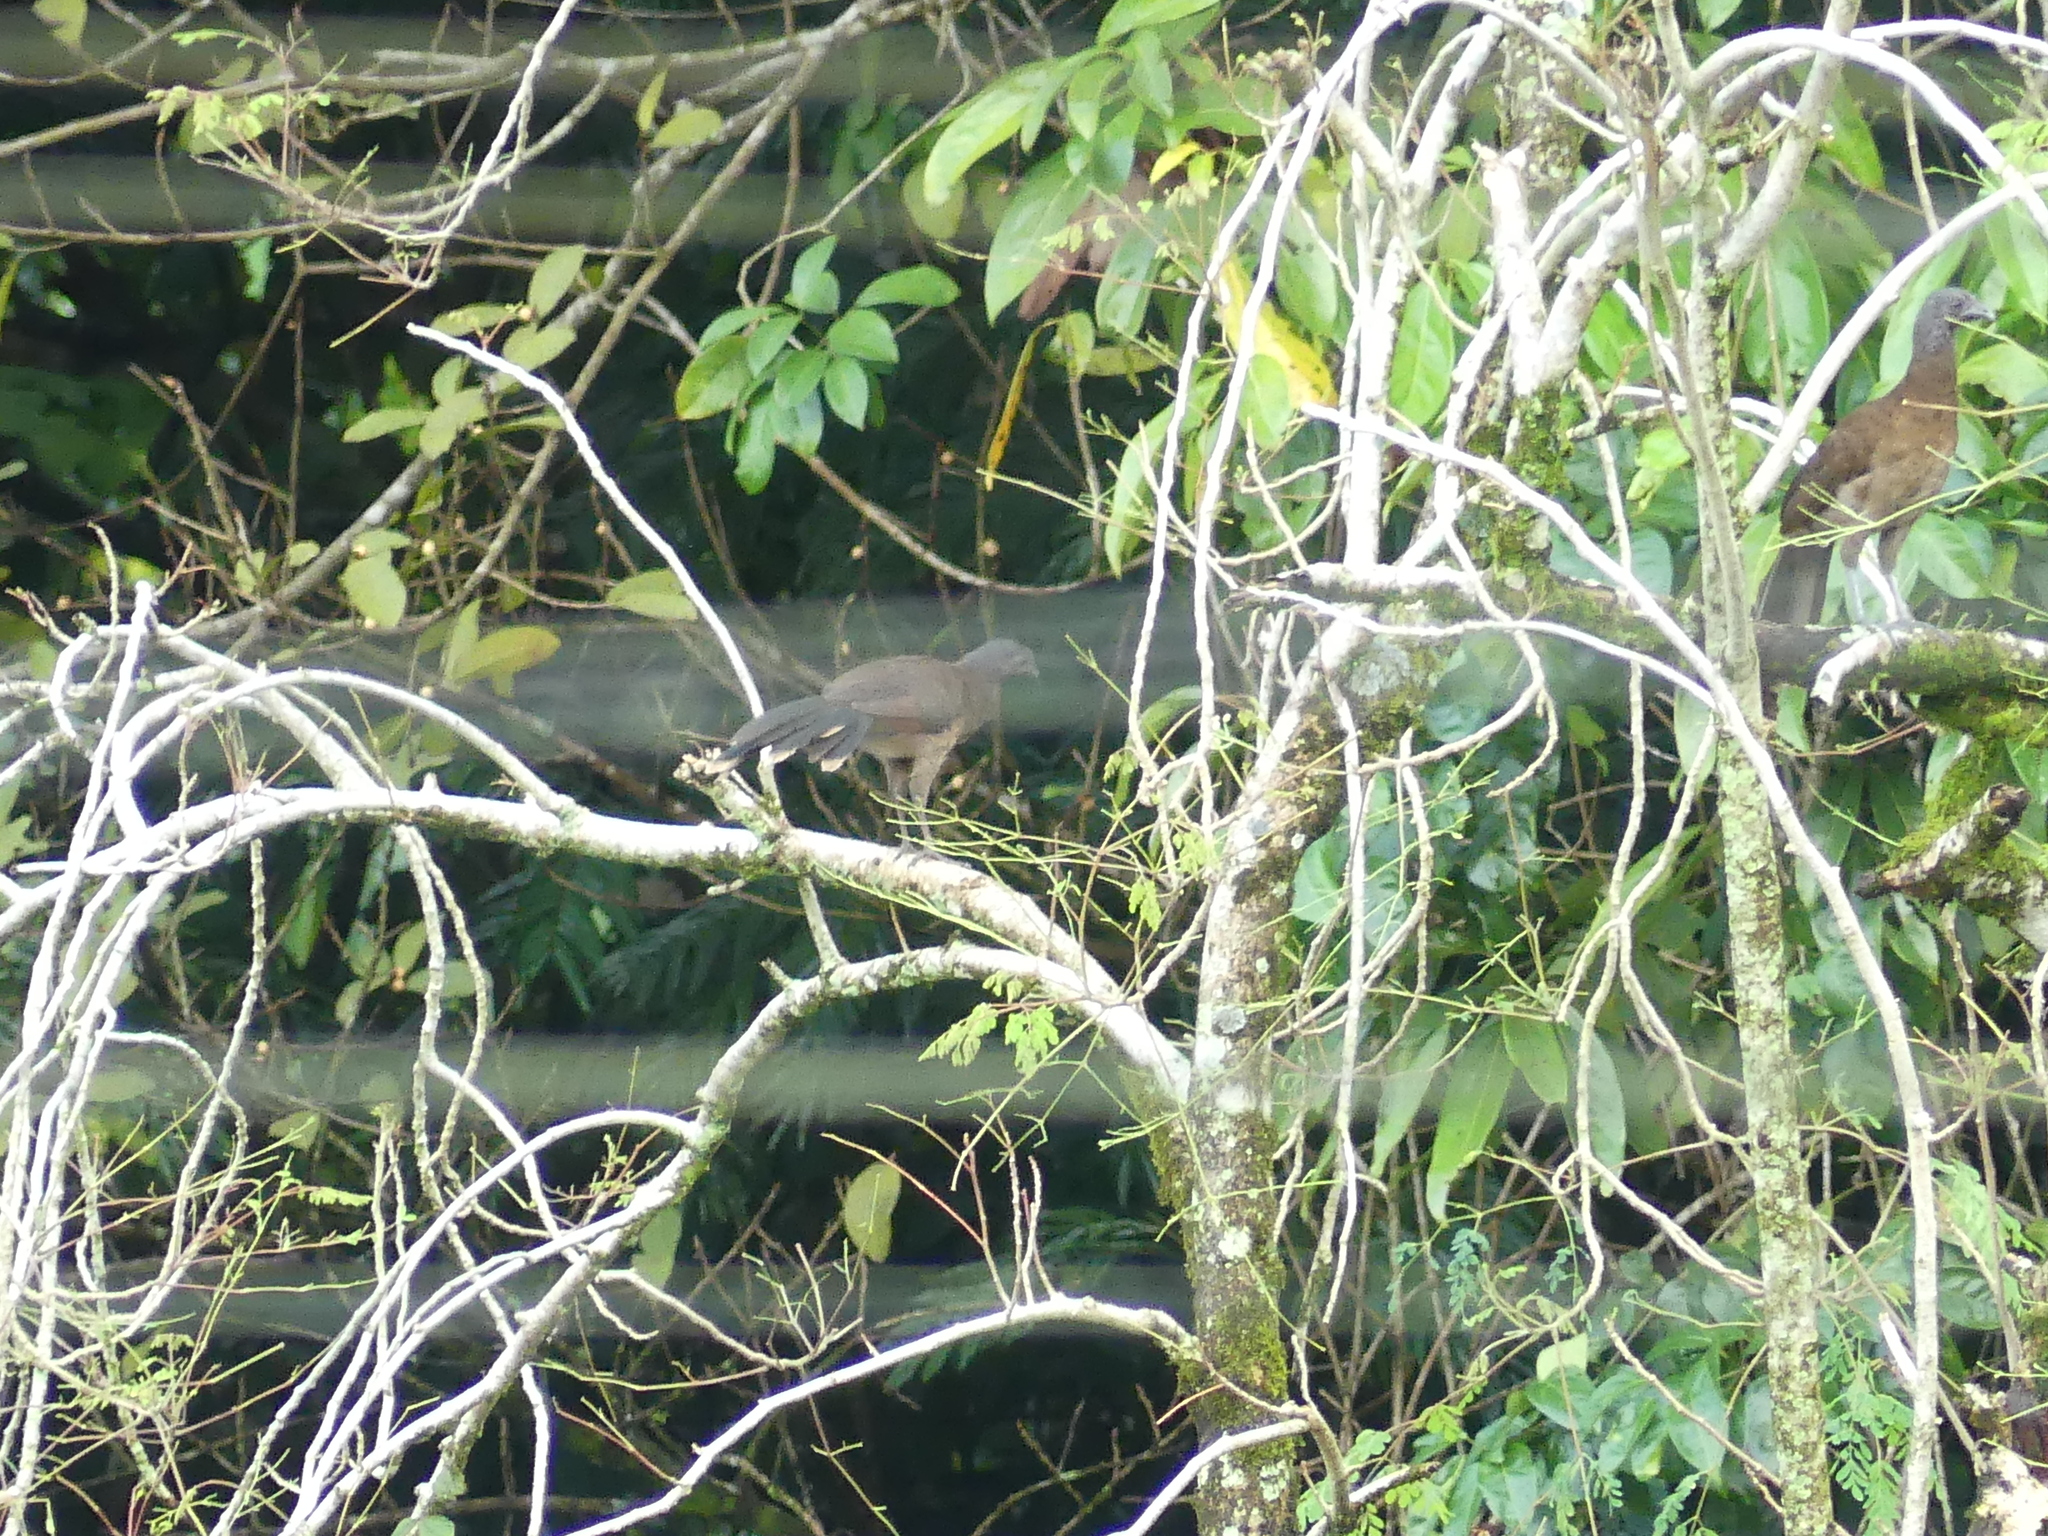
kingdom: Animalia
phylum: Chordata
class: Aves
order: Galliformes
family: Cracidae
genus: Ortalis
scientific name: Ortalis cinereiceps
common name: Grey-headed chachalaca
